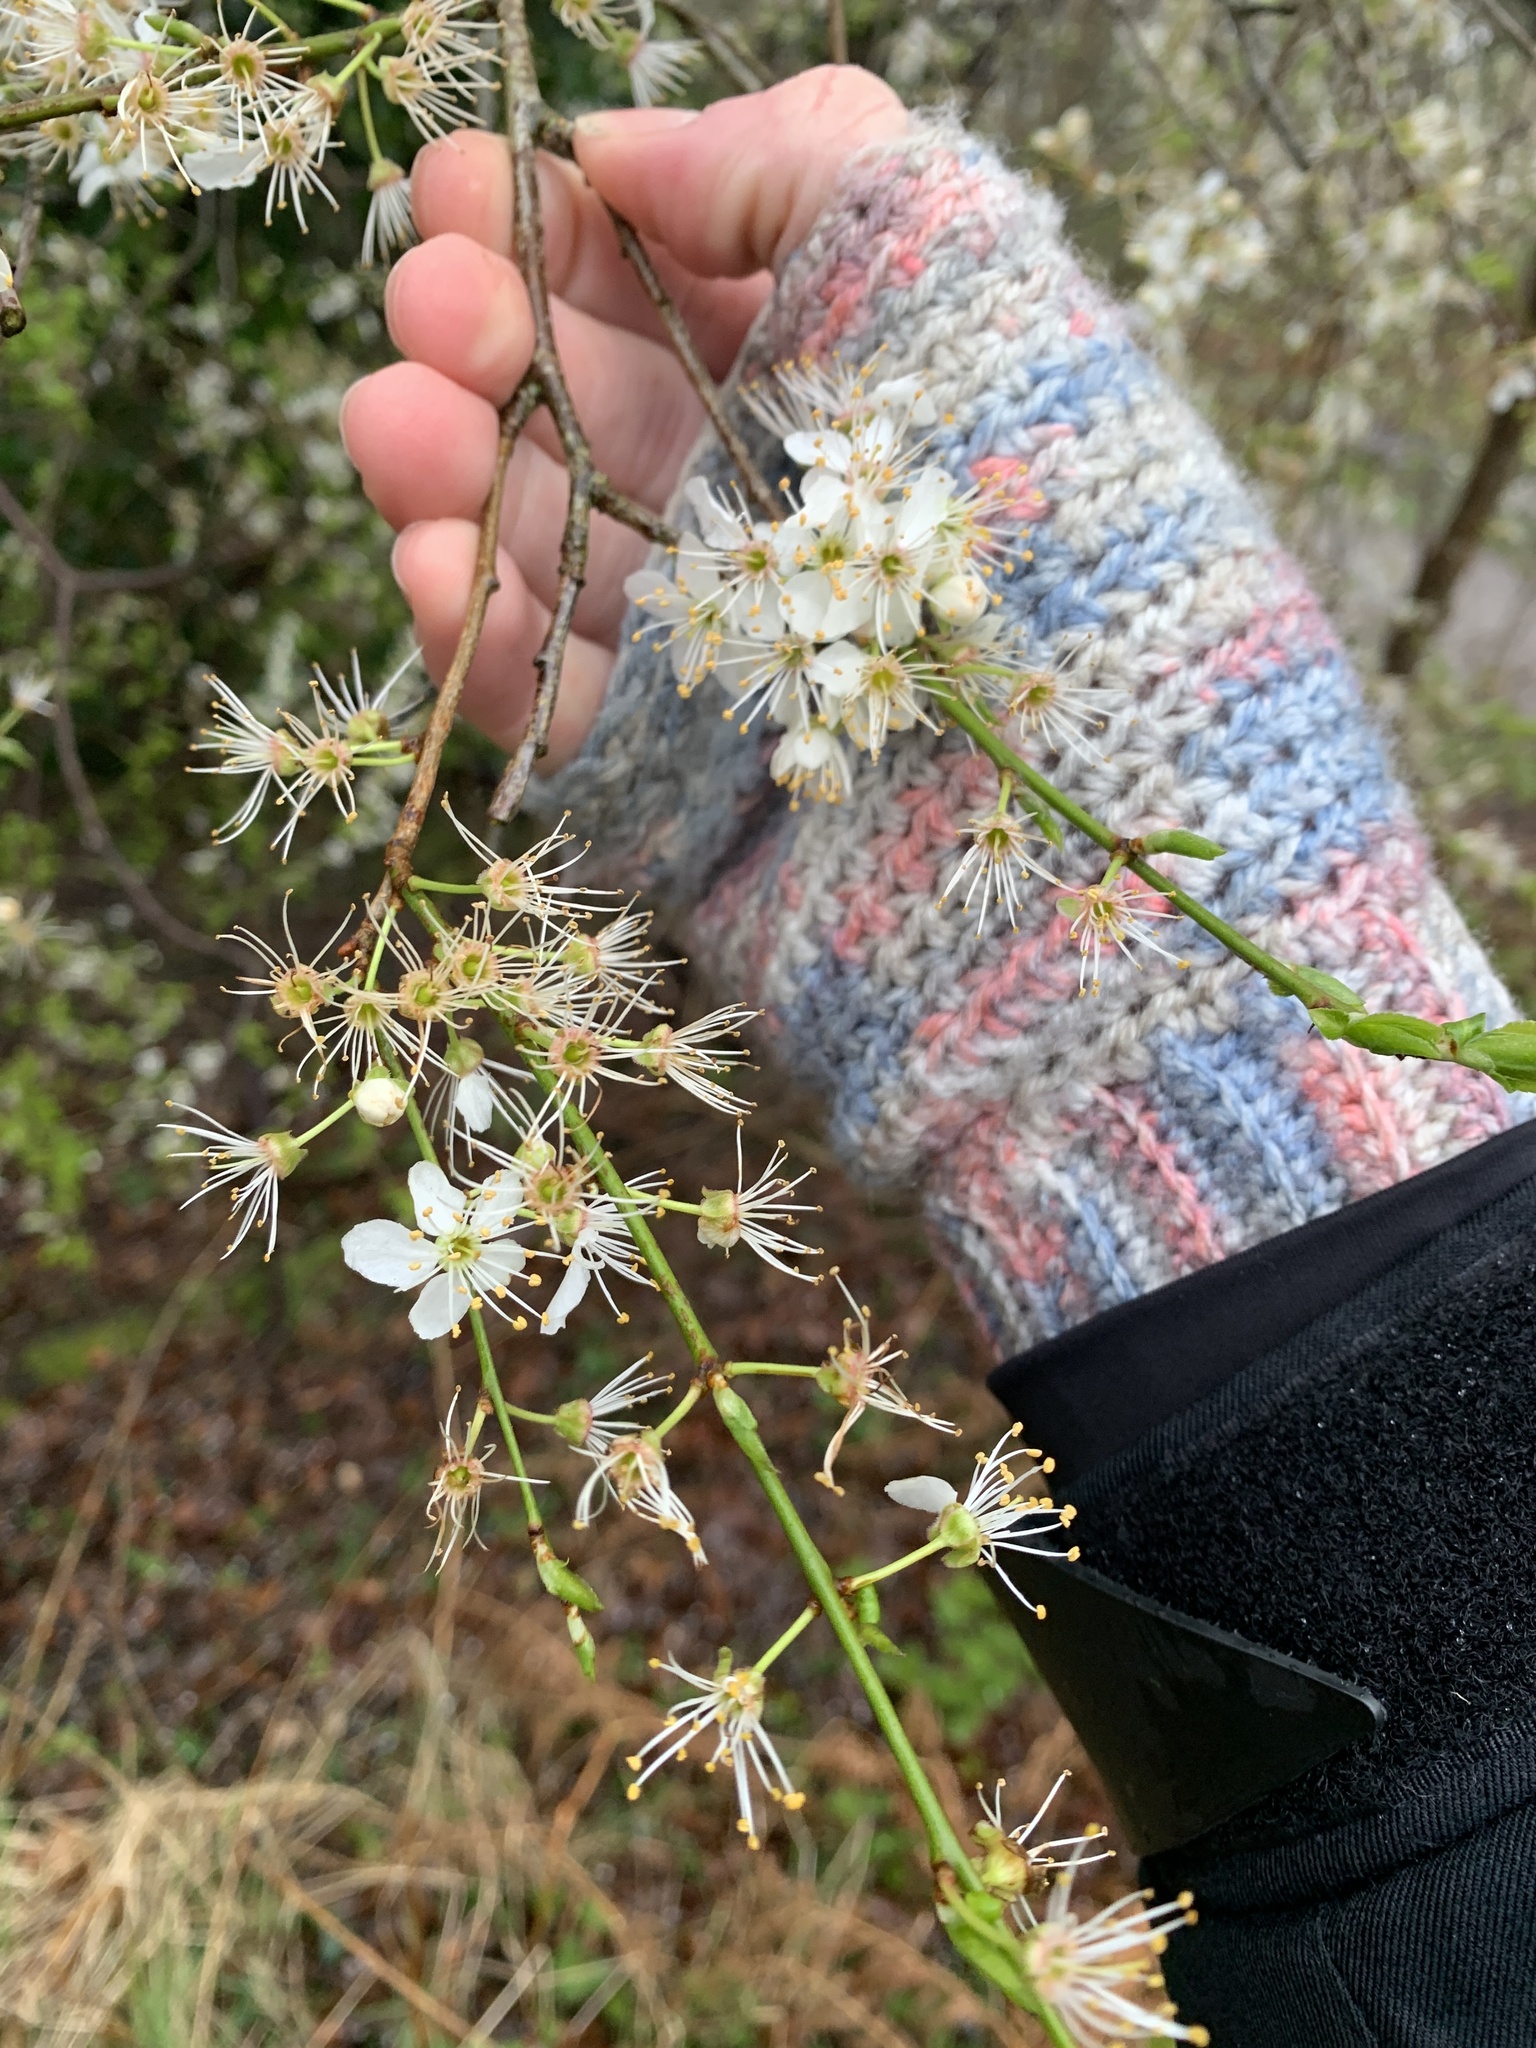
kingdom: Plantae
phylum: Tracheophyta
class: Magnoliopsida
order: Rosales
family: Rosaceae
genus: Prunus
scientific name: Prunus cerasifera
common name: Cherry plum
